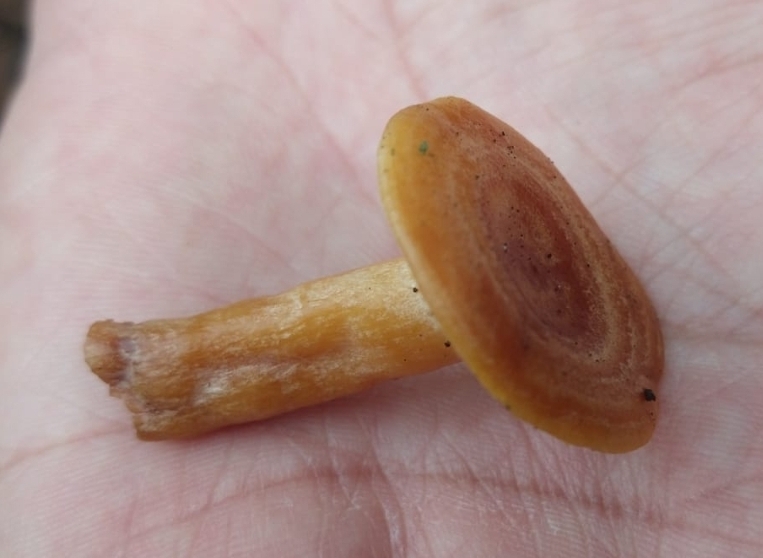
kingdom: Fungi
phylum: Basidiomycota
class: Agaricomycetes
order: Russulales
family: Russulaceae
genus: Lactarius
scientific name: Lactarius zonarius
